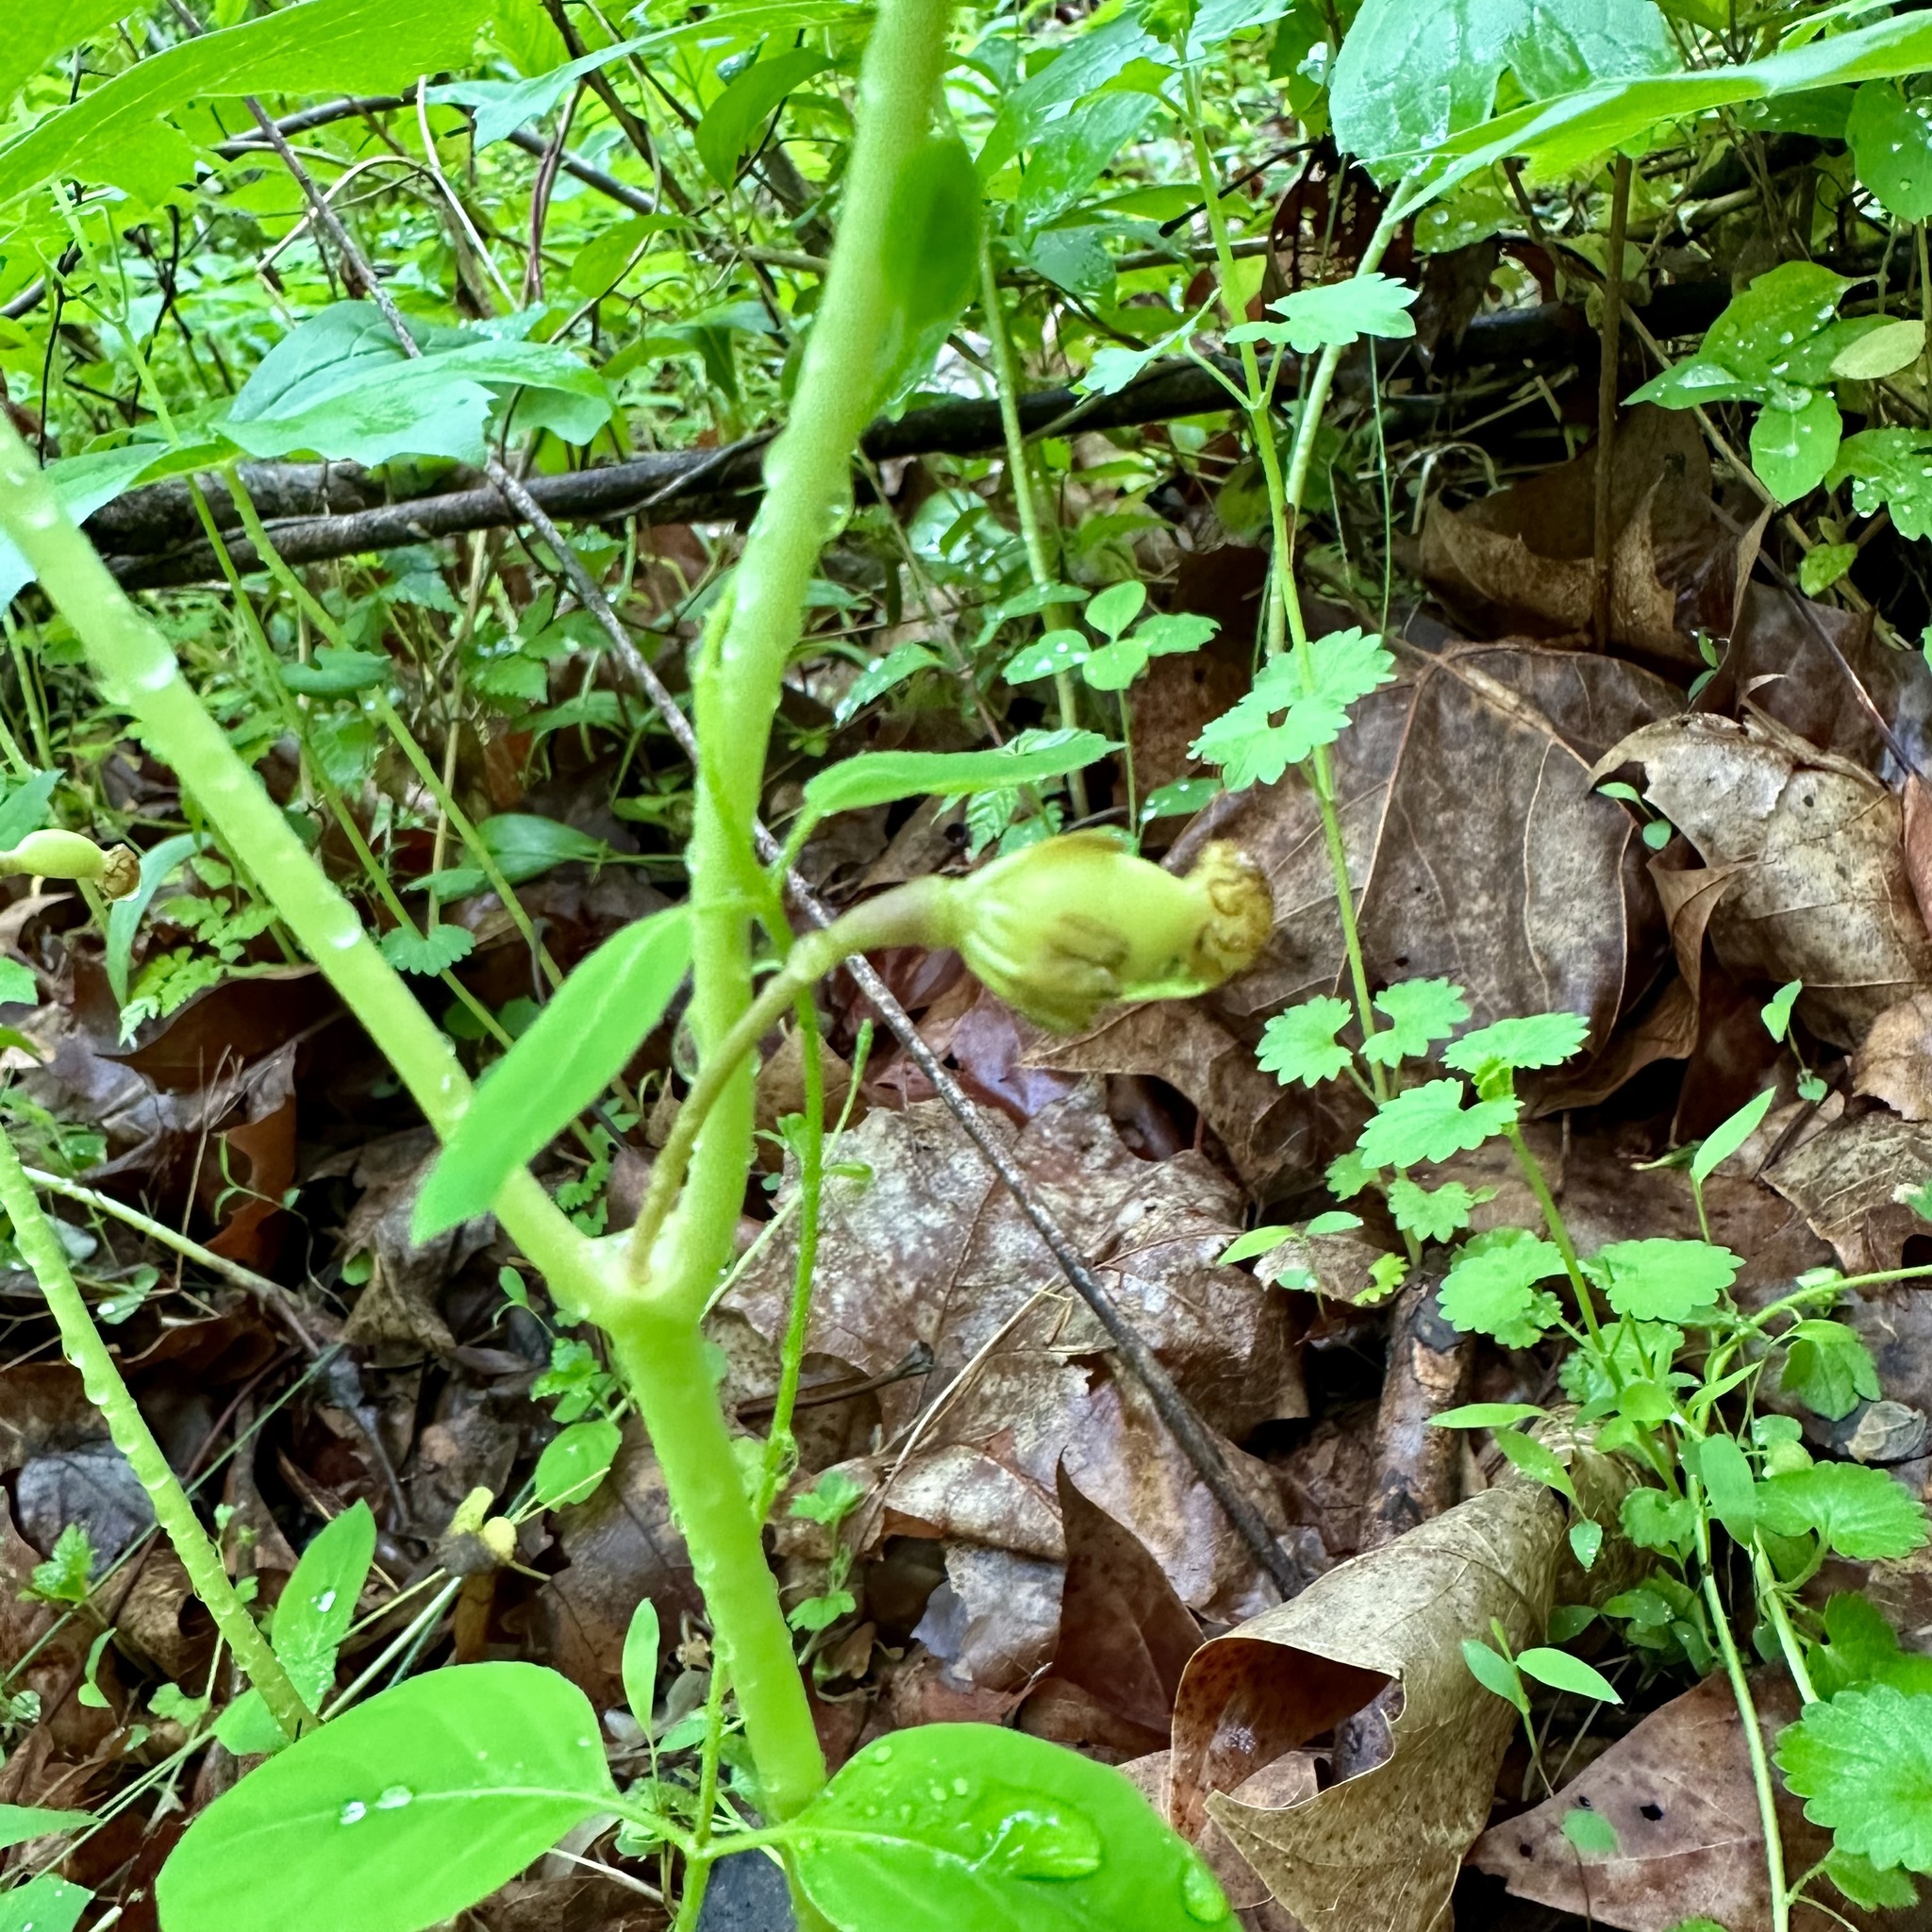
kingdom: Plantae
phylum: Tracheophyta
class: Magnoliopsida
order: Ranunculales
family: Berberidaceae
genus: Podophyllum
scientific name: Podophyllum peltatum
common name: Wild mandrake
